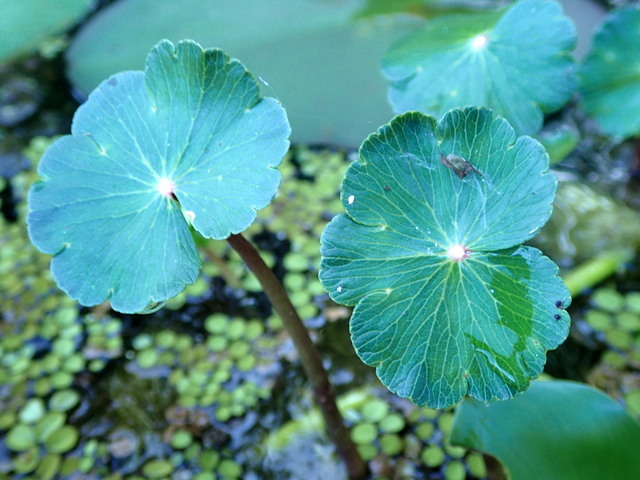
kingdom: Plantae
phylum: Tracheophyta
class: Magnoliopsida
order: Apiales
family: Araliaceae
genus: Hydrocotyle
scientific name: Hydrocotyle ranunculoides
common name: Floating pennywort
